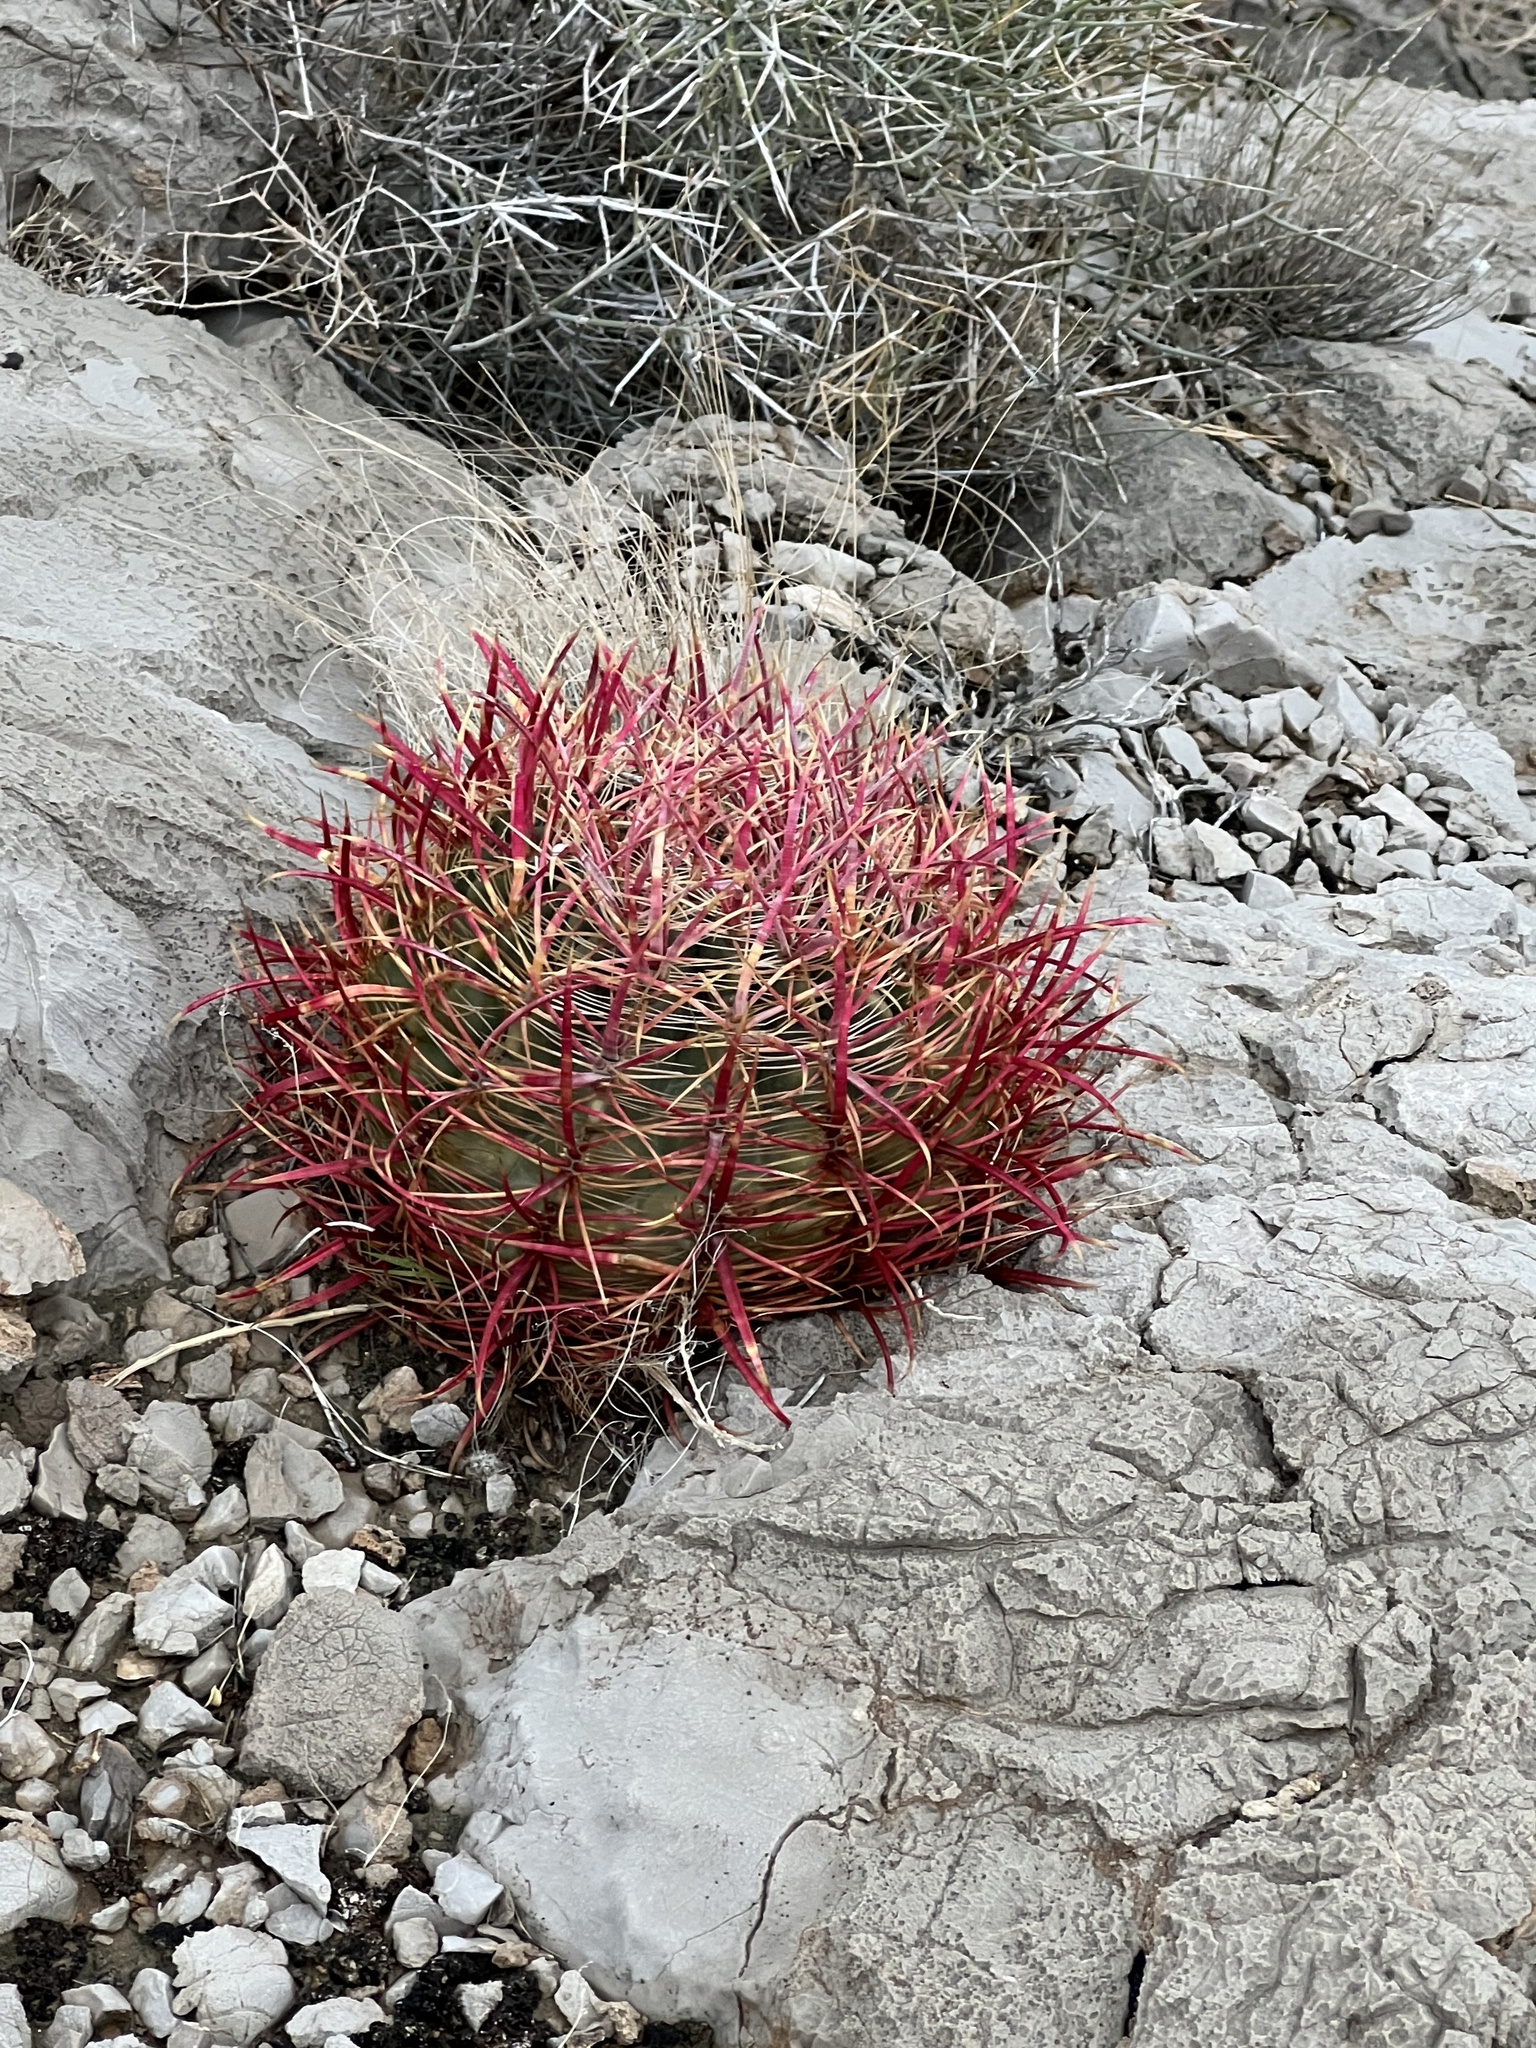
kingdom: Plantae
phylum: Tracheophyta
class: Magnoliopsida
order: Caryophyllales
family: Cactaceae
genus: Ferocactus
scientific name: Ferocactus cylindraceus
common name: California barrel cactus
